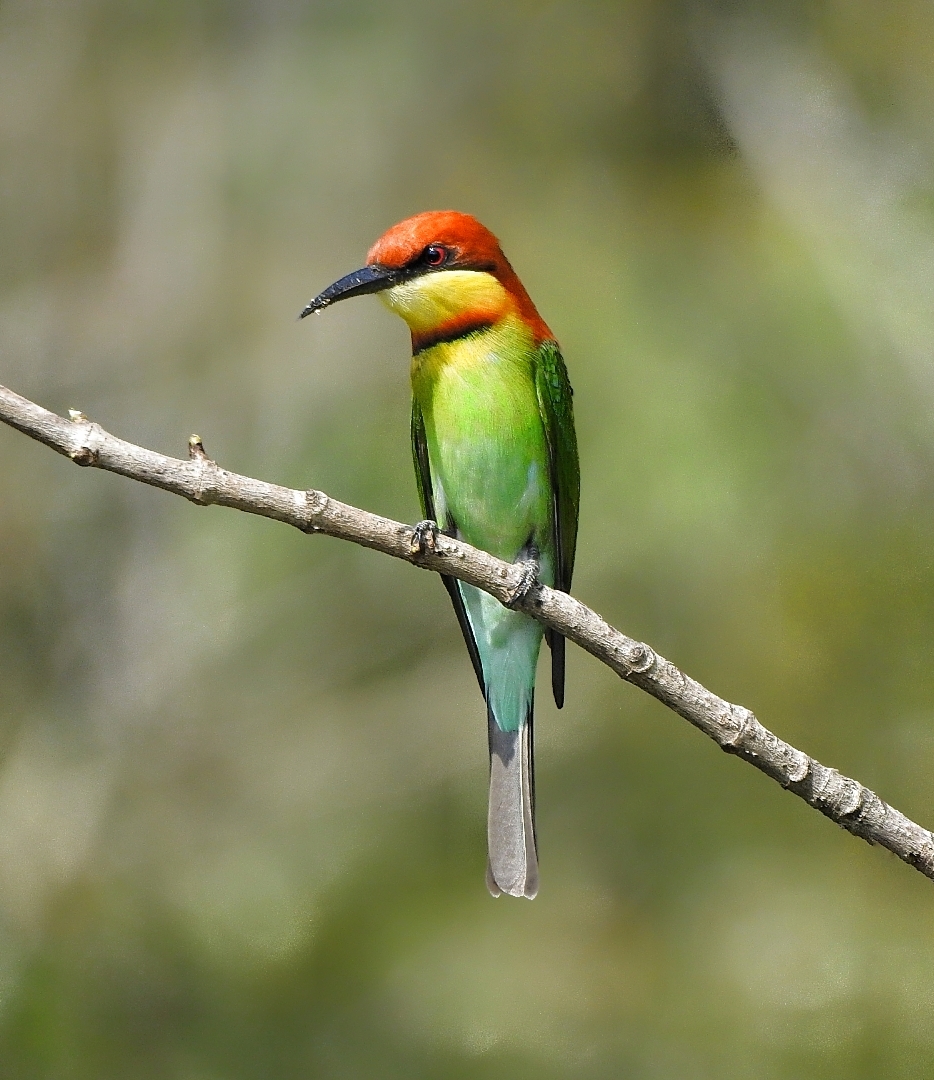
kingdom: Animalia
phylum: Chordata
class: Aves
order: Coraciiformes
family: Meropidae
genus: Merops
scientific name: Merops leschenaulti
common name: Chestnut-headed bee-eater
